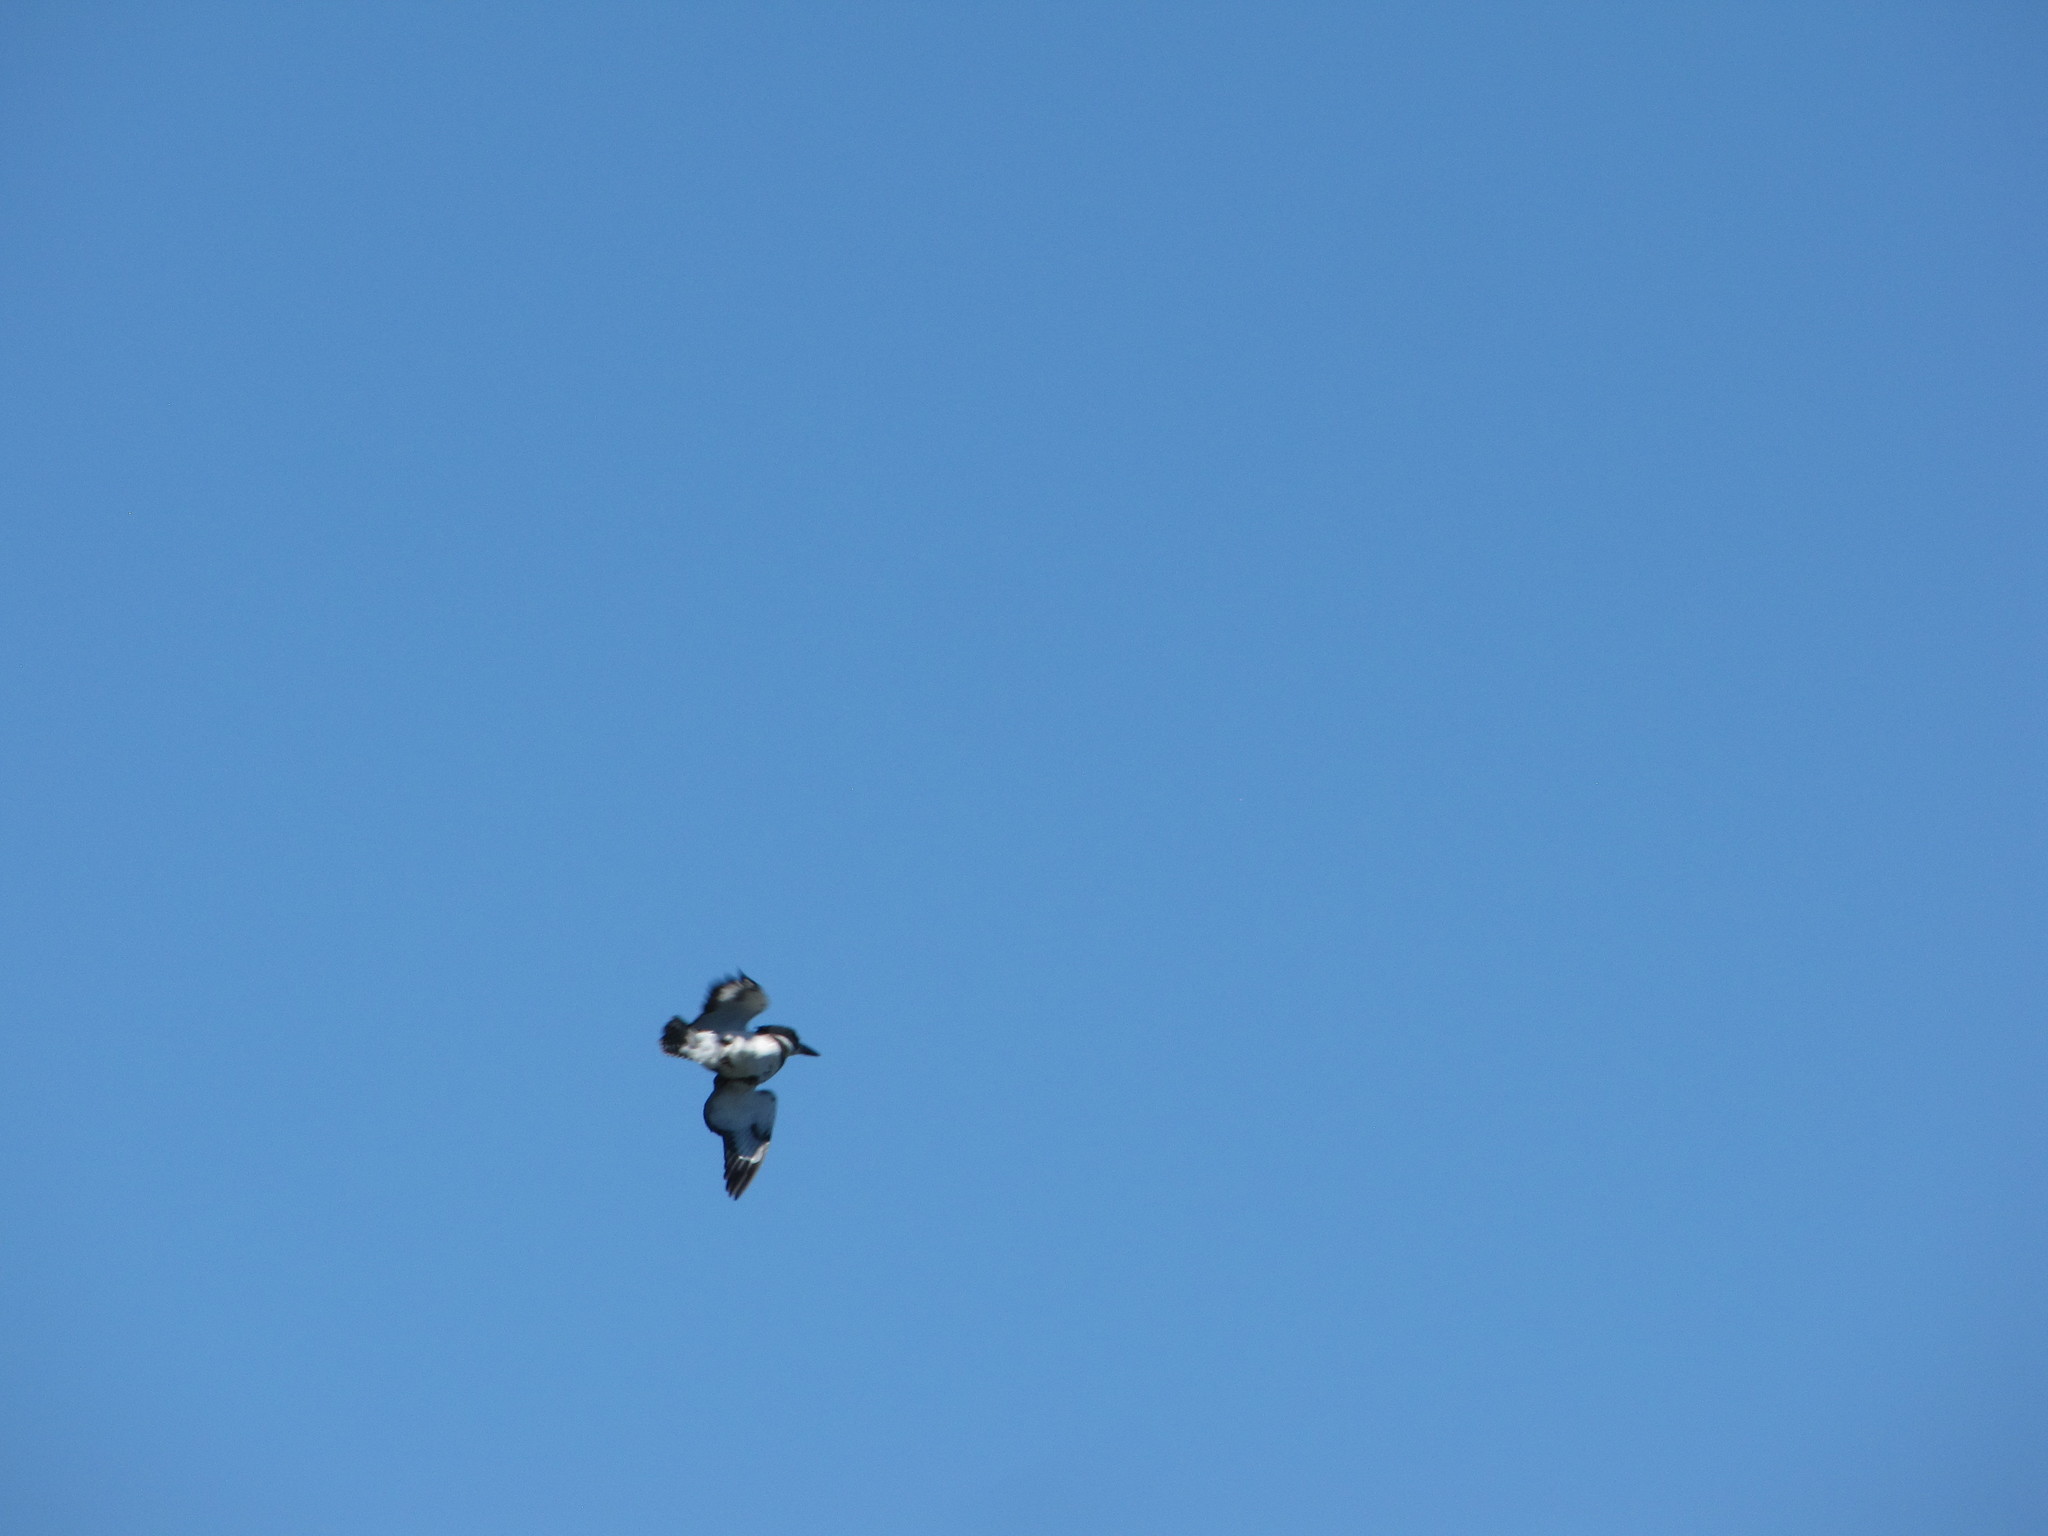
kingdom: Animalia
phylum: Chordata
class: Aves
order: Coraciiformes
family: Alcedinidae
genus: Megaceryle
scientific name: Megaceryle alcyon
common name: Belted kingfisher
